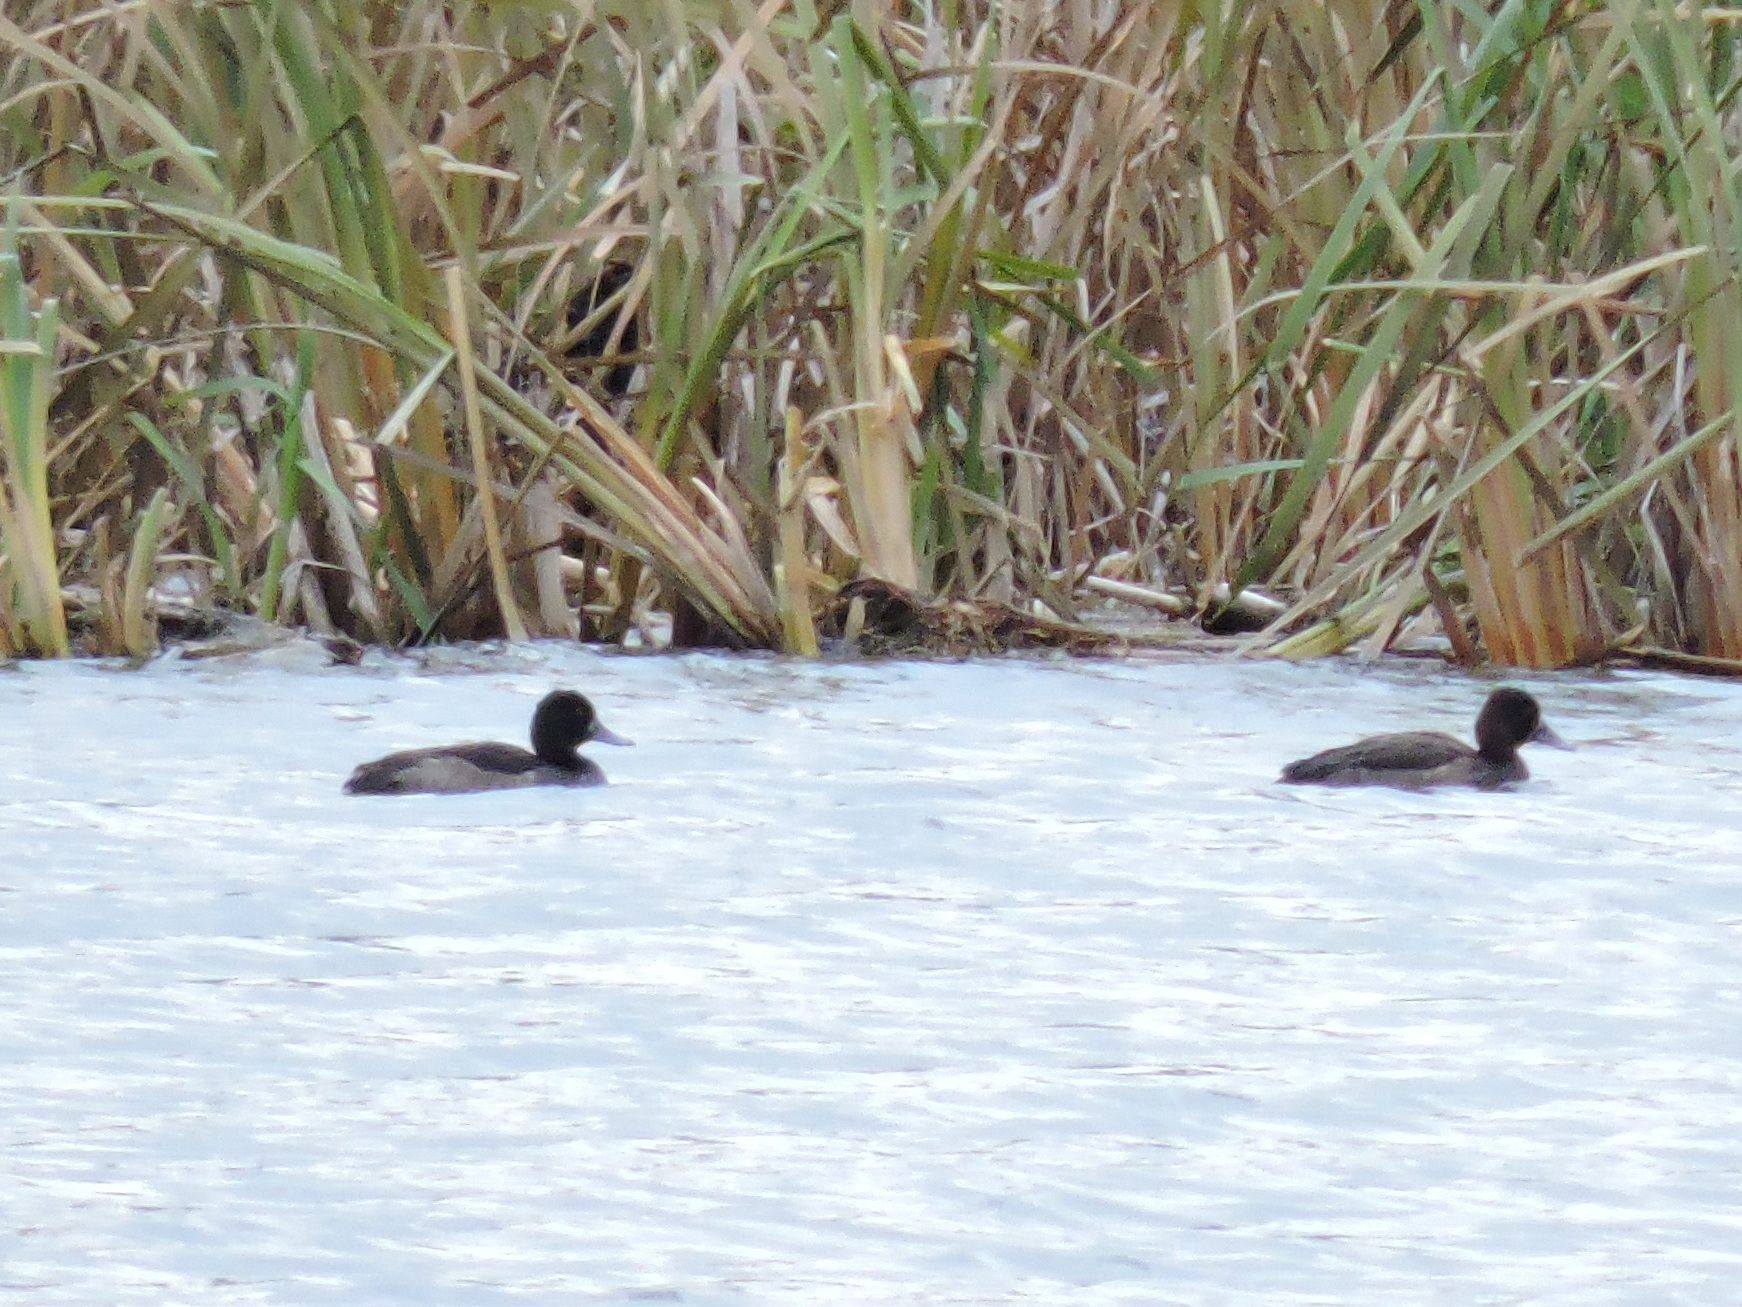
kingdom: Animalia
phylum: Chordata
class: Aves
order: Anseriformes
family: Anatidae
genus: Aythya
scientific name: Aythya fuligula
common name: Tufted duck
